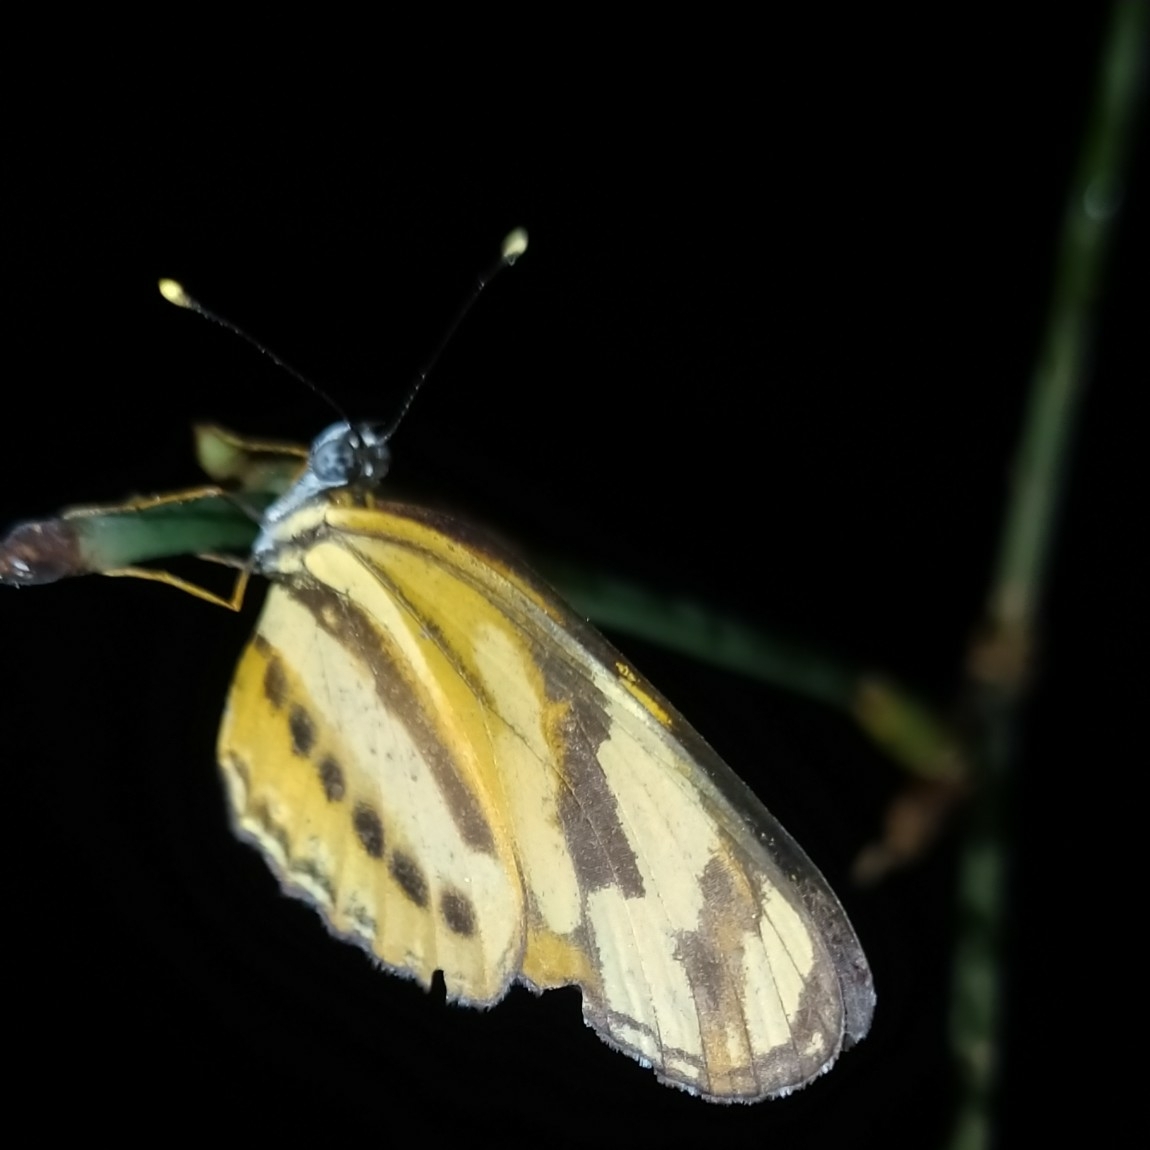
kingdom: Animalia
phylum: Arthropoda
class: Insecta
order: Lepidoptera
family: Nymphalidae
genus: Eresia
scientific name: Eresia eunice
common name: Tiger crescent
